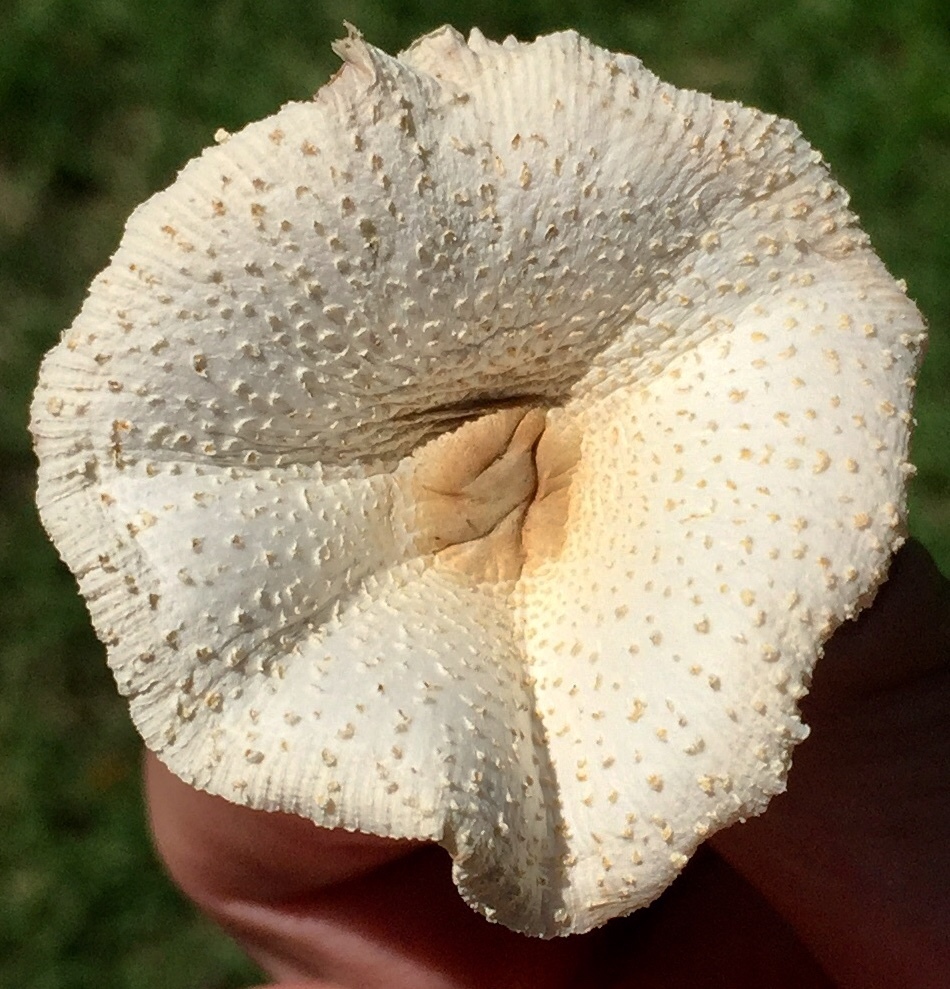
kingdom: Fungi
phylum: Basidiomycota
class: Agaricomycetes
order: Agaricales
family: Agaricaceae
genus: Leucocoprinus
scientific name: Leucocoprinus cepistipes
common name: Onion-stalk parasol
